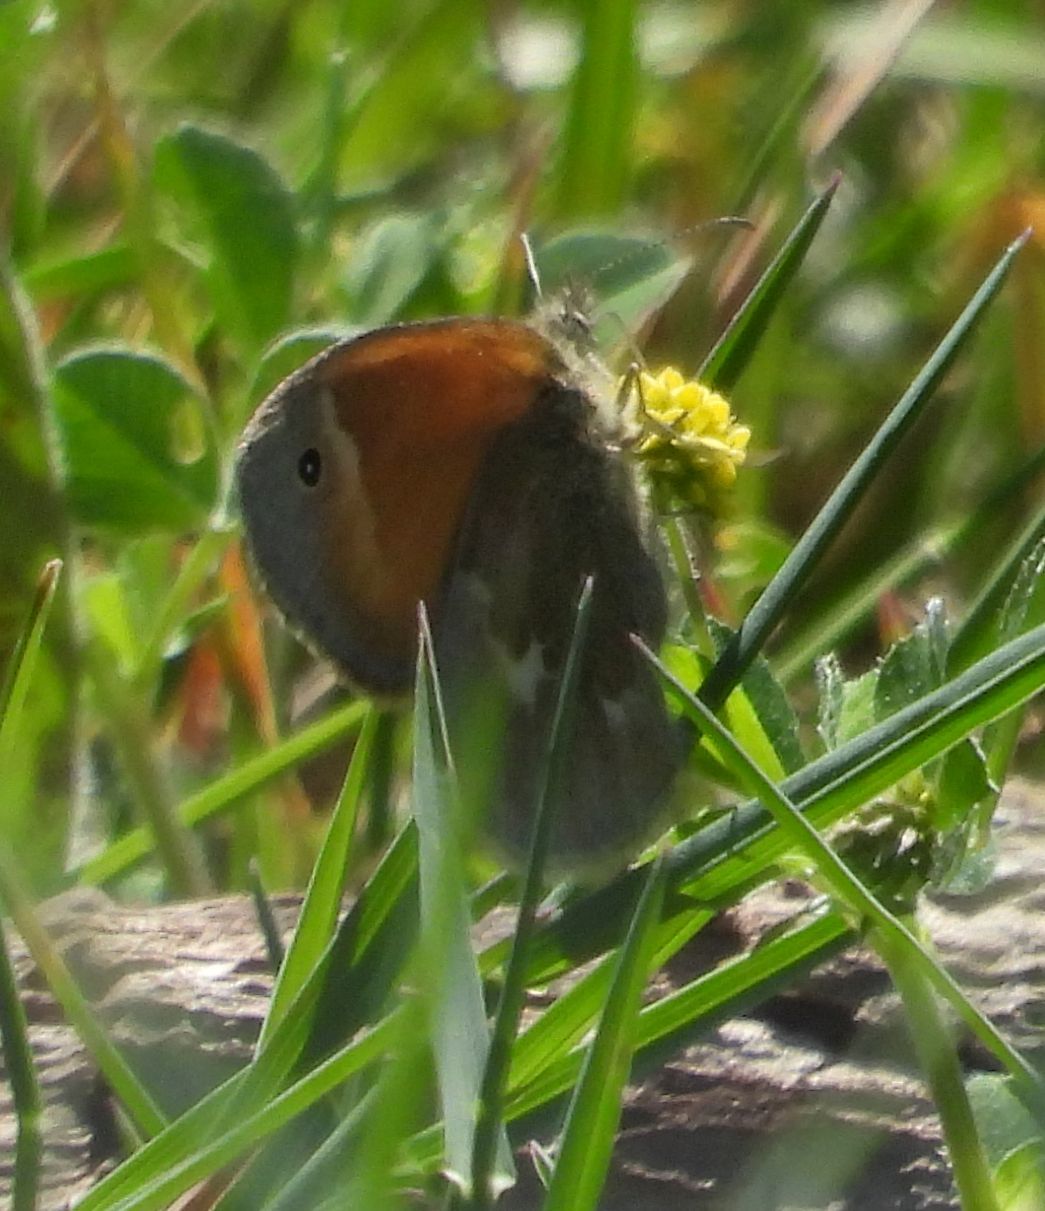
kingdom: Animalia
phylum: Arthropoda
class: Insecta
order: Lepidoptera
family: Nymphalidae
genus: Coenonympha
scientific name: Coenonympha california
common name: Common ringlet
